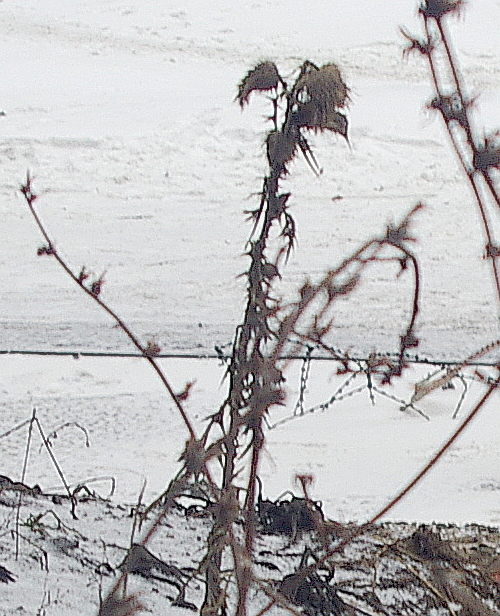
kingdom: Plantae
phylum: Tracheophyta
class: Magnoliopsida
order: Asterales
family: Asteraceae
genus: Cirsium
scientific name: Cirsium vulgare
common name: Bull thistle
